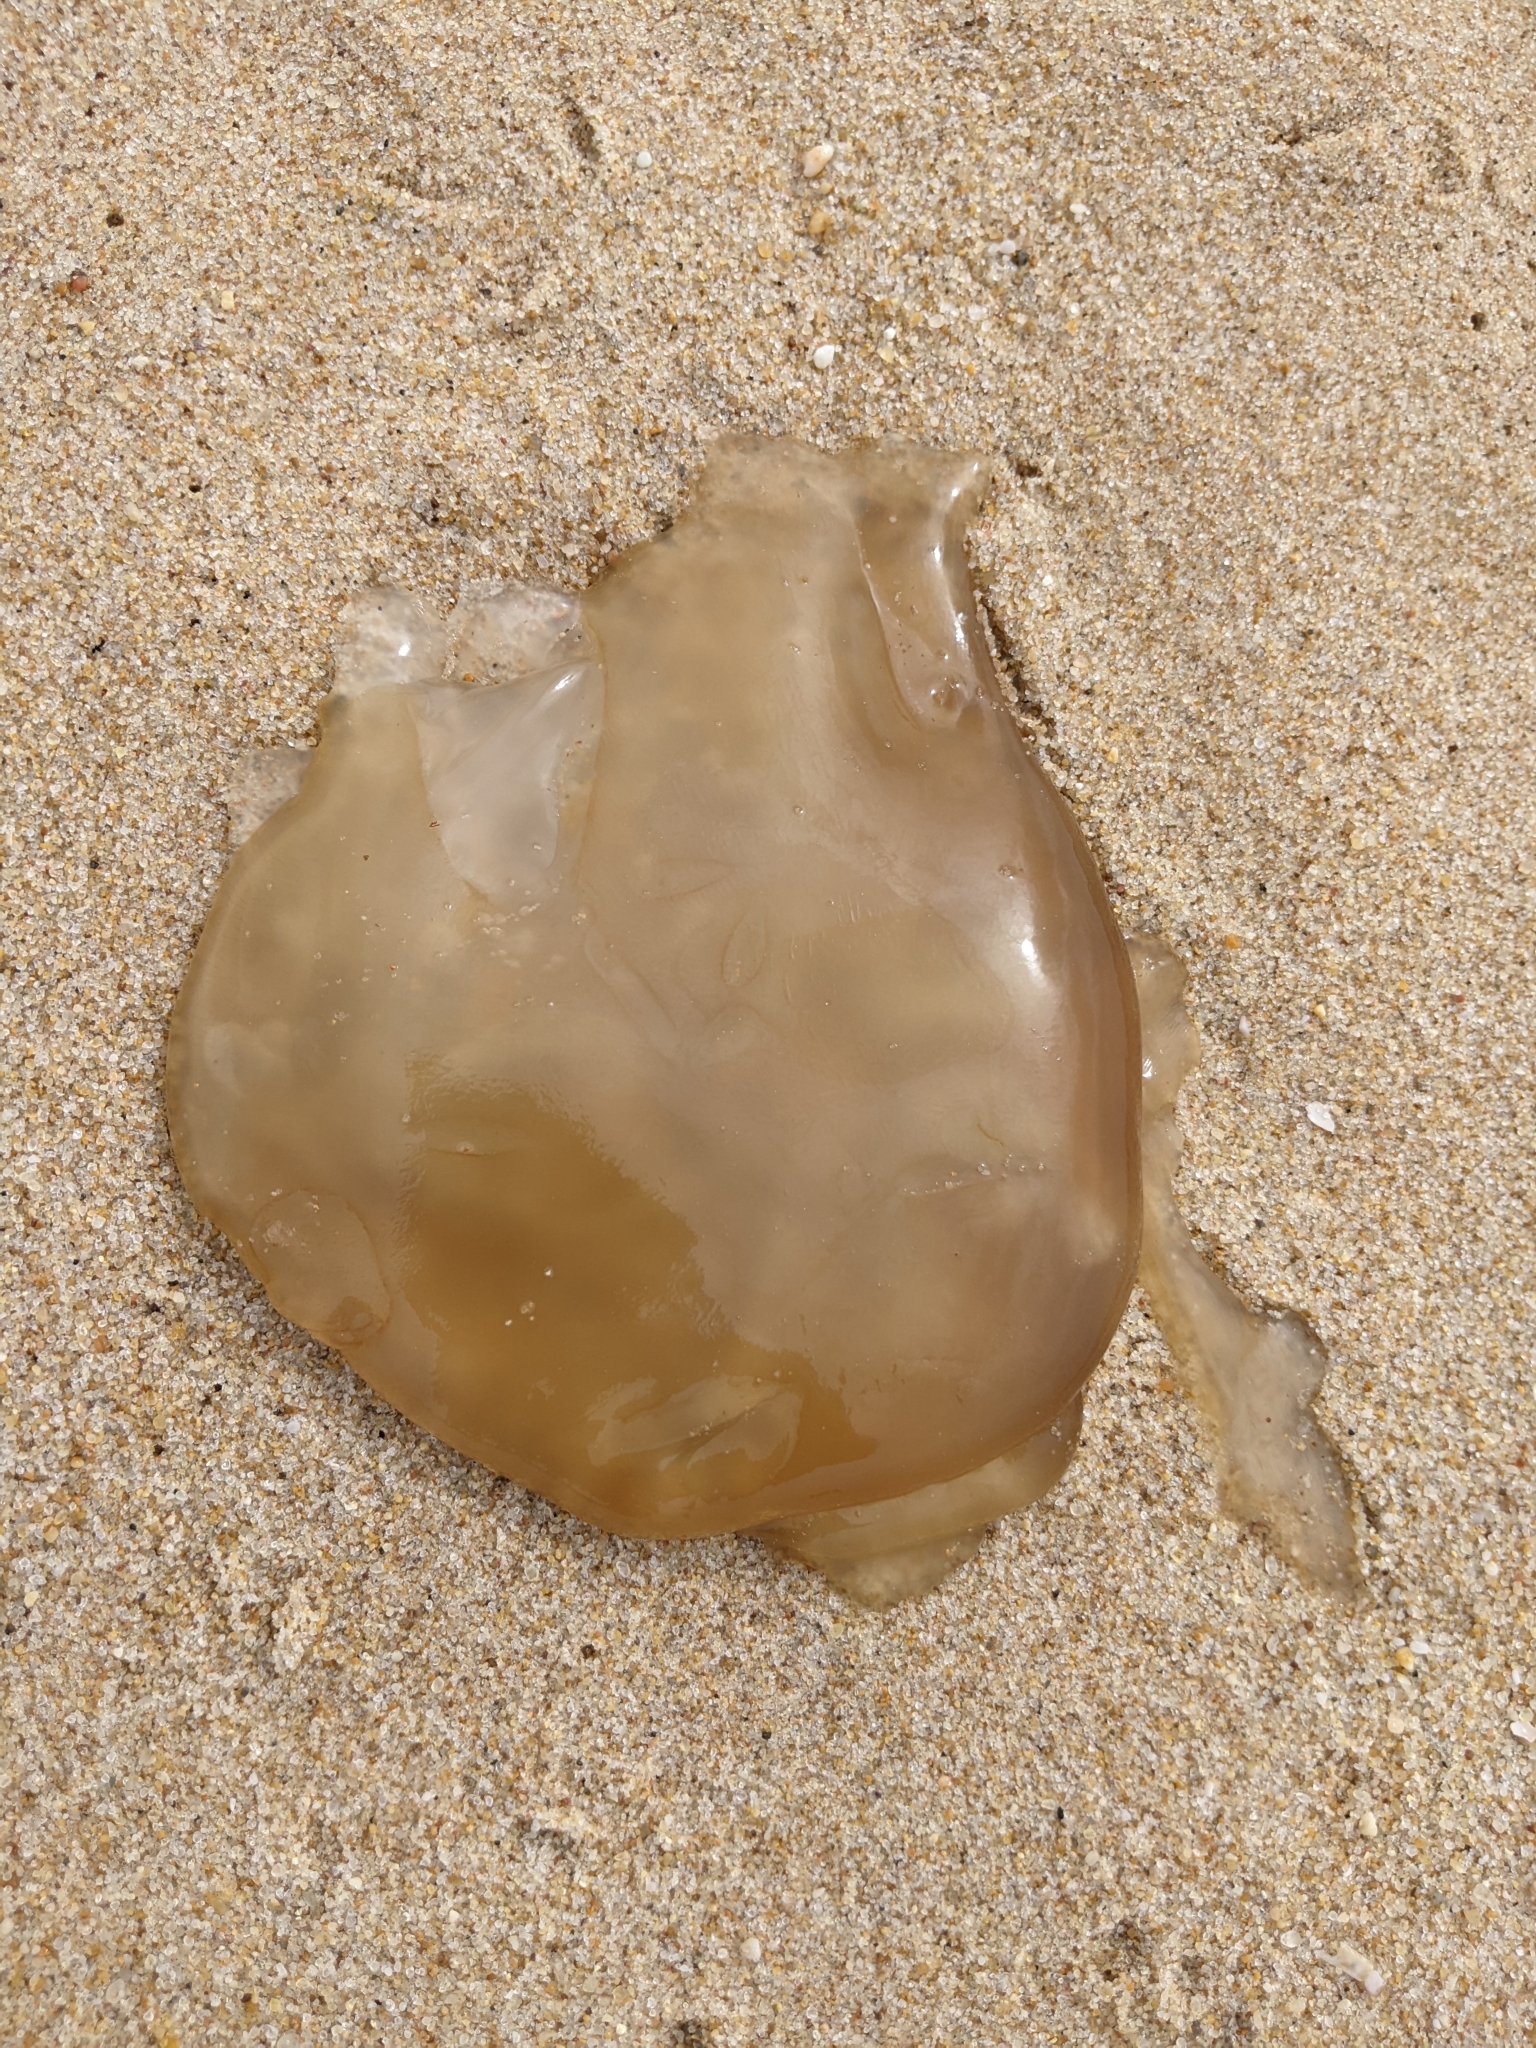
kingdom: Animalia
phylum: Cnidaria
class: Scyphozoa
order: Rhizostomeae
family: Catostylidae
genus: Catostylus
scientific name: Catostylus tagi
